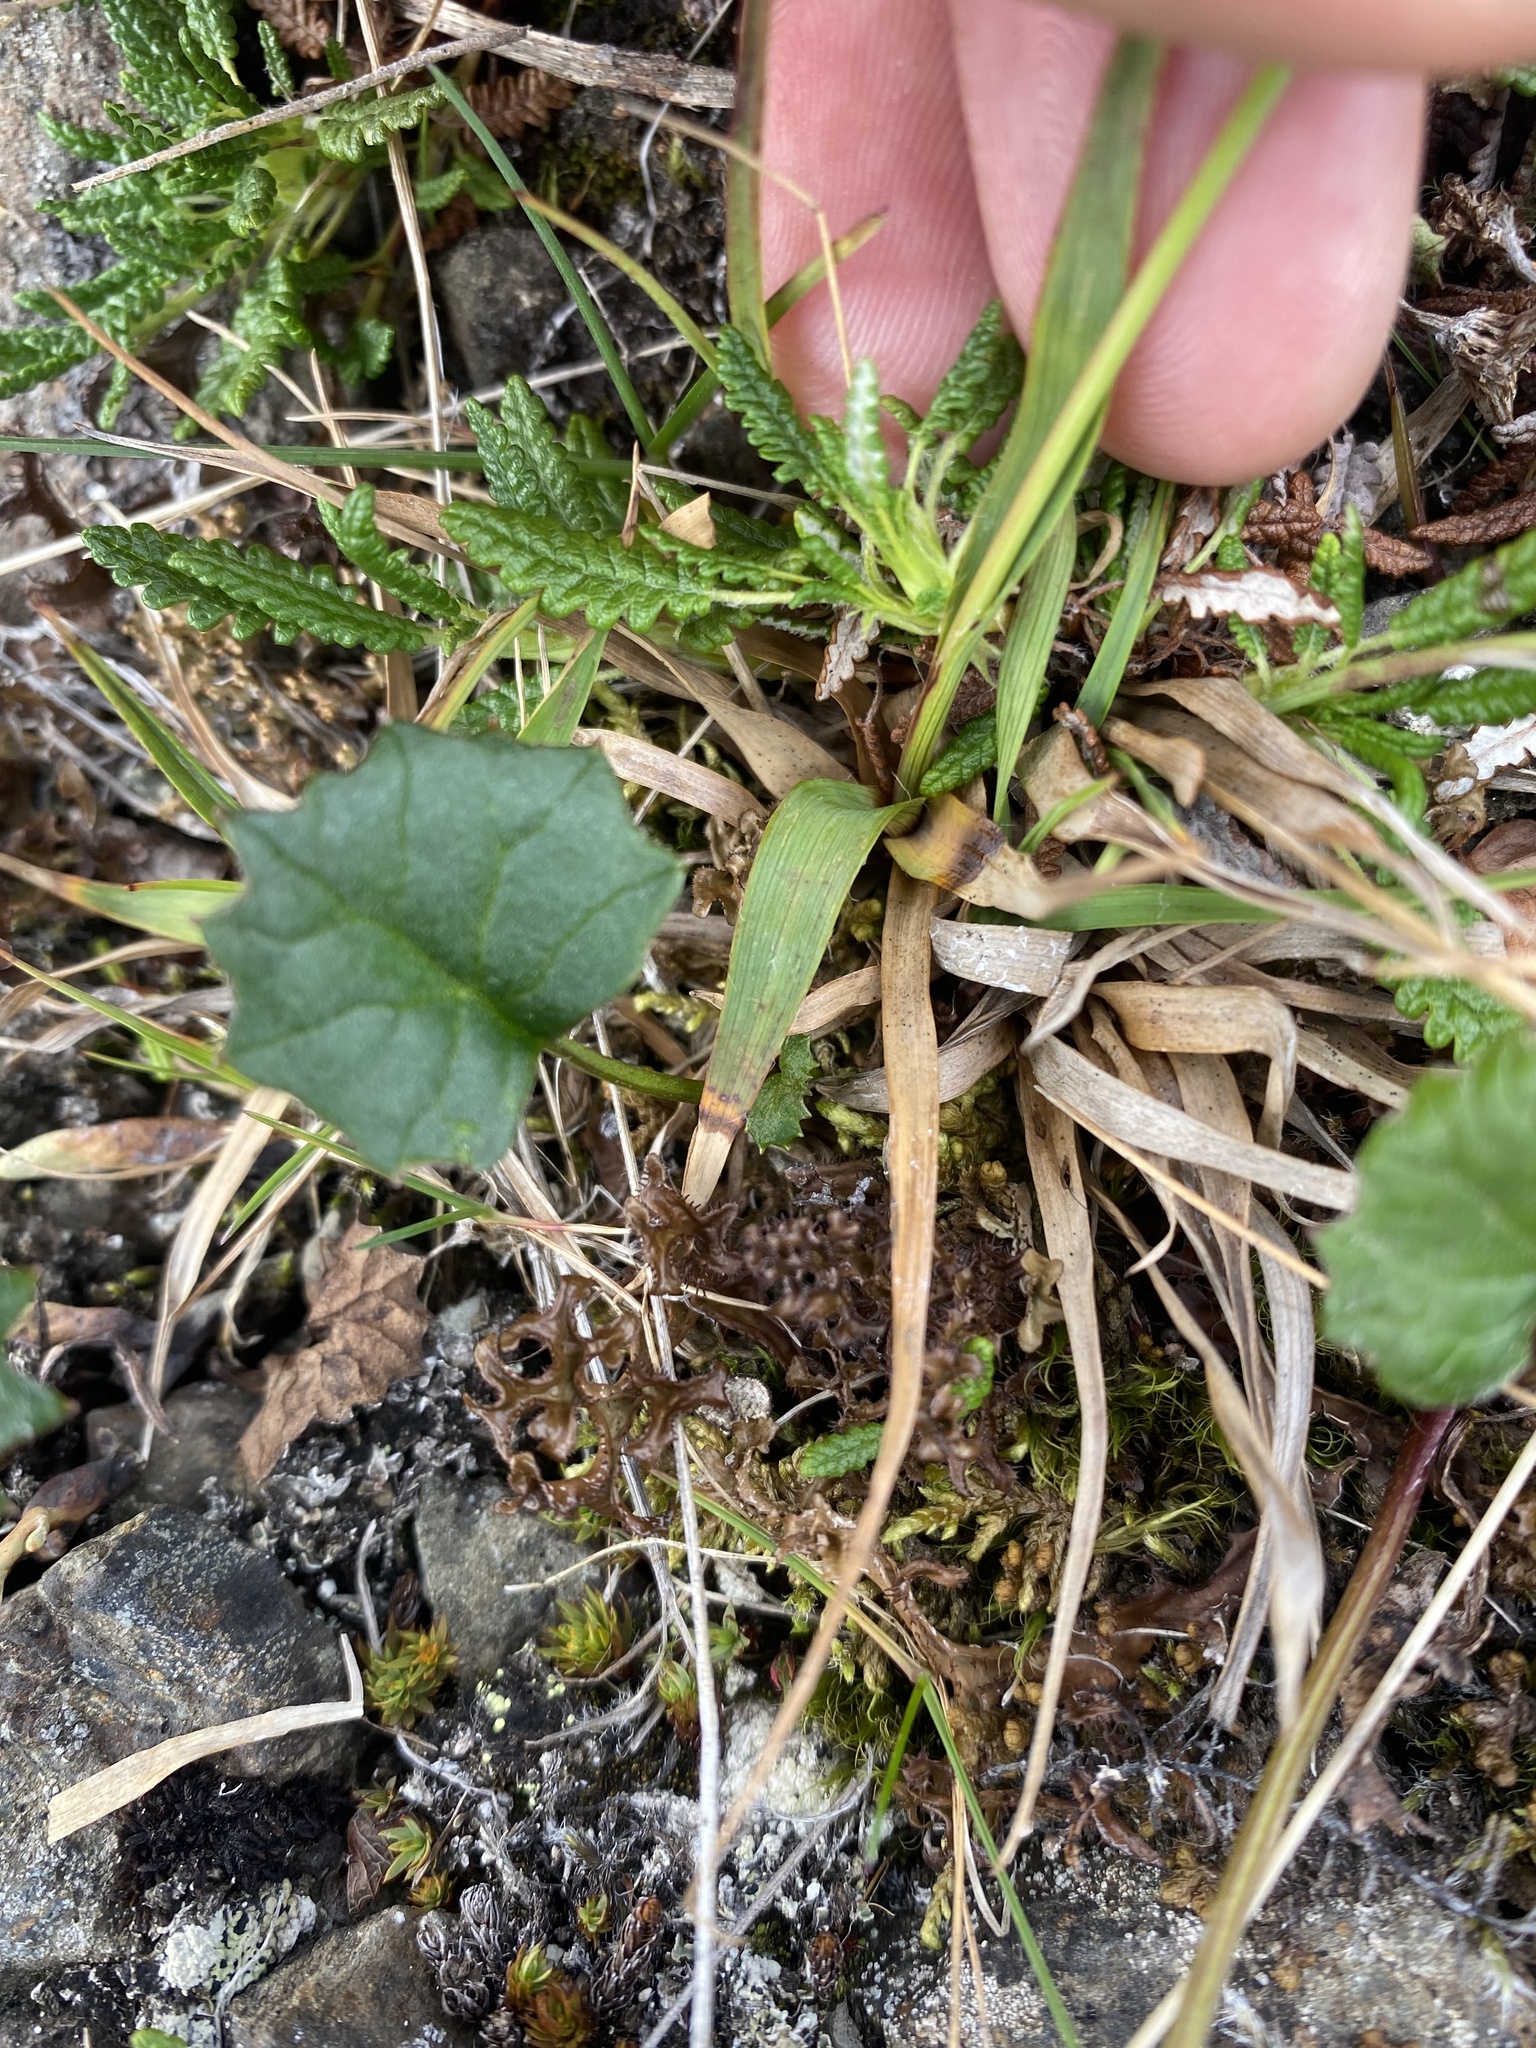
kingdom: Plantae
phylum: Tracheophyta
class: Liliopsida
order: Poales
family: Juncaceae
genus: Luzula
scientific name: Luzula nivalis
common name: Arctic woodrush
